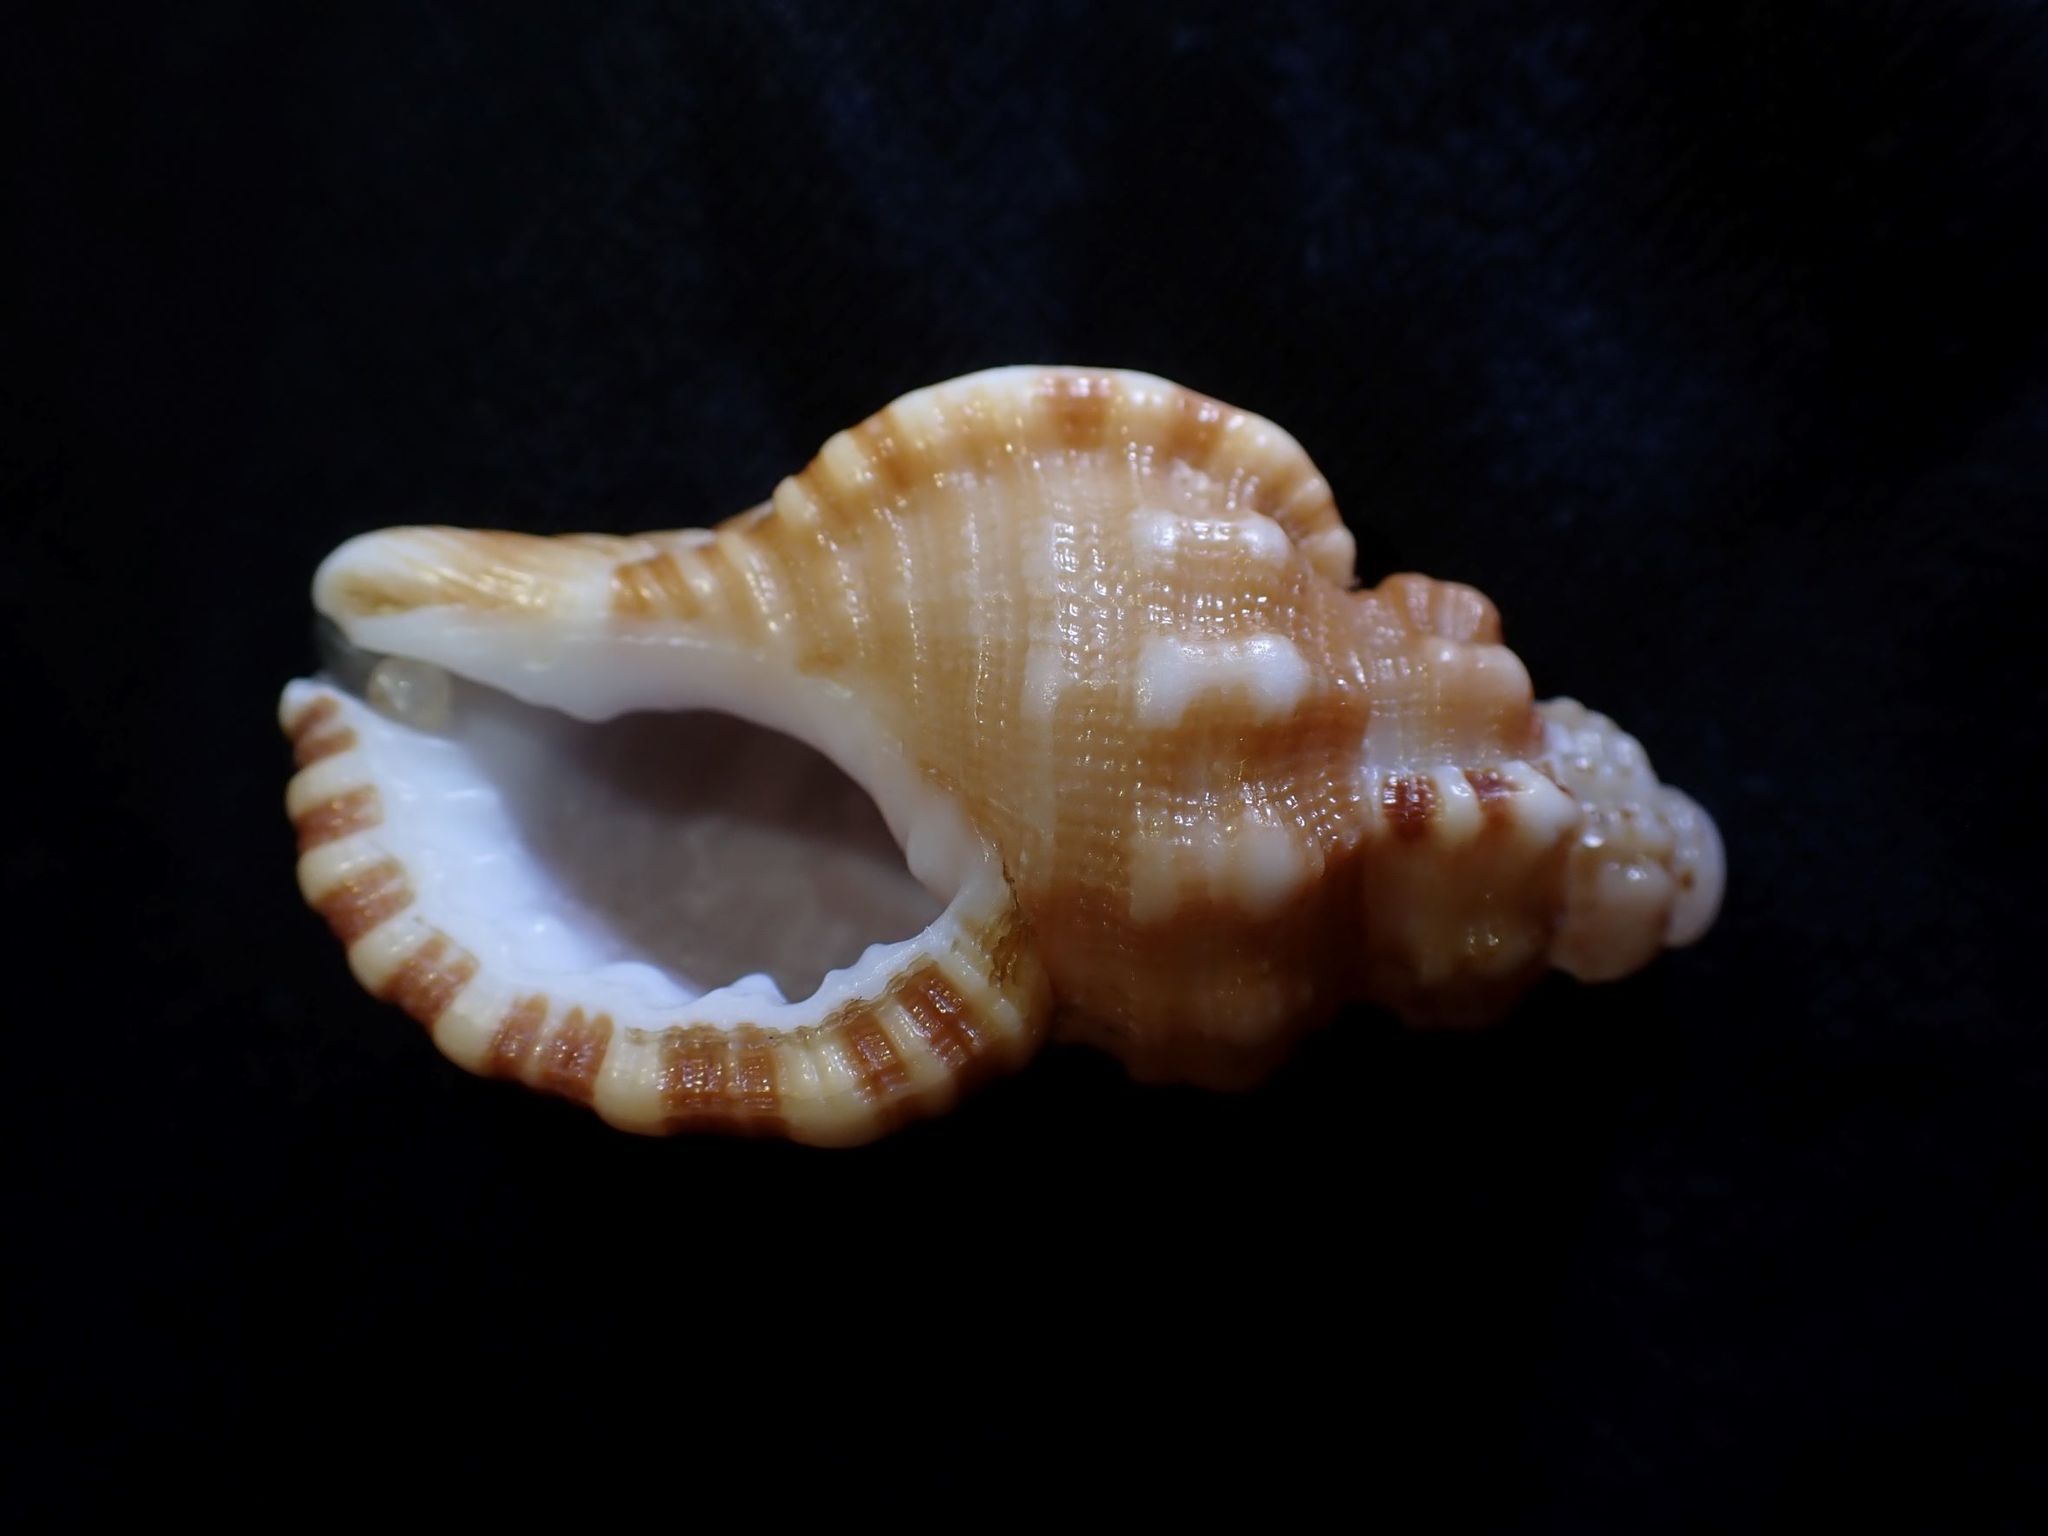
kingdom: Animalia
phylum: Mollusca
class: Gastropoda
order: Littorinimorpha
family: Cymatiidae
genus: Cabestana
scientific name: Cabestana tabulata
